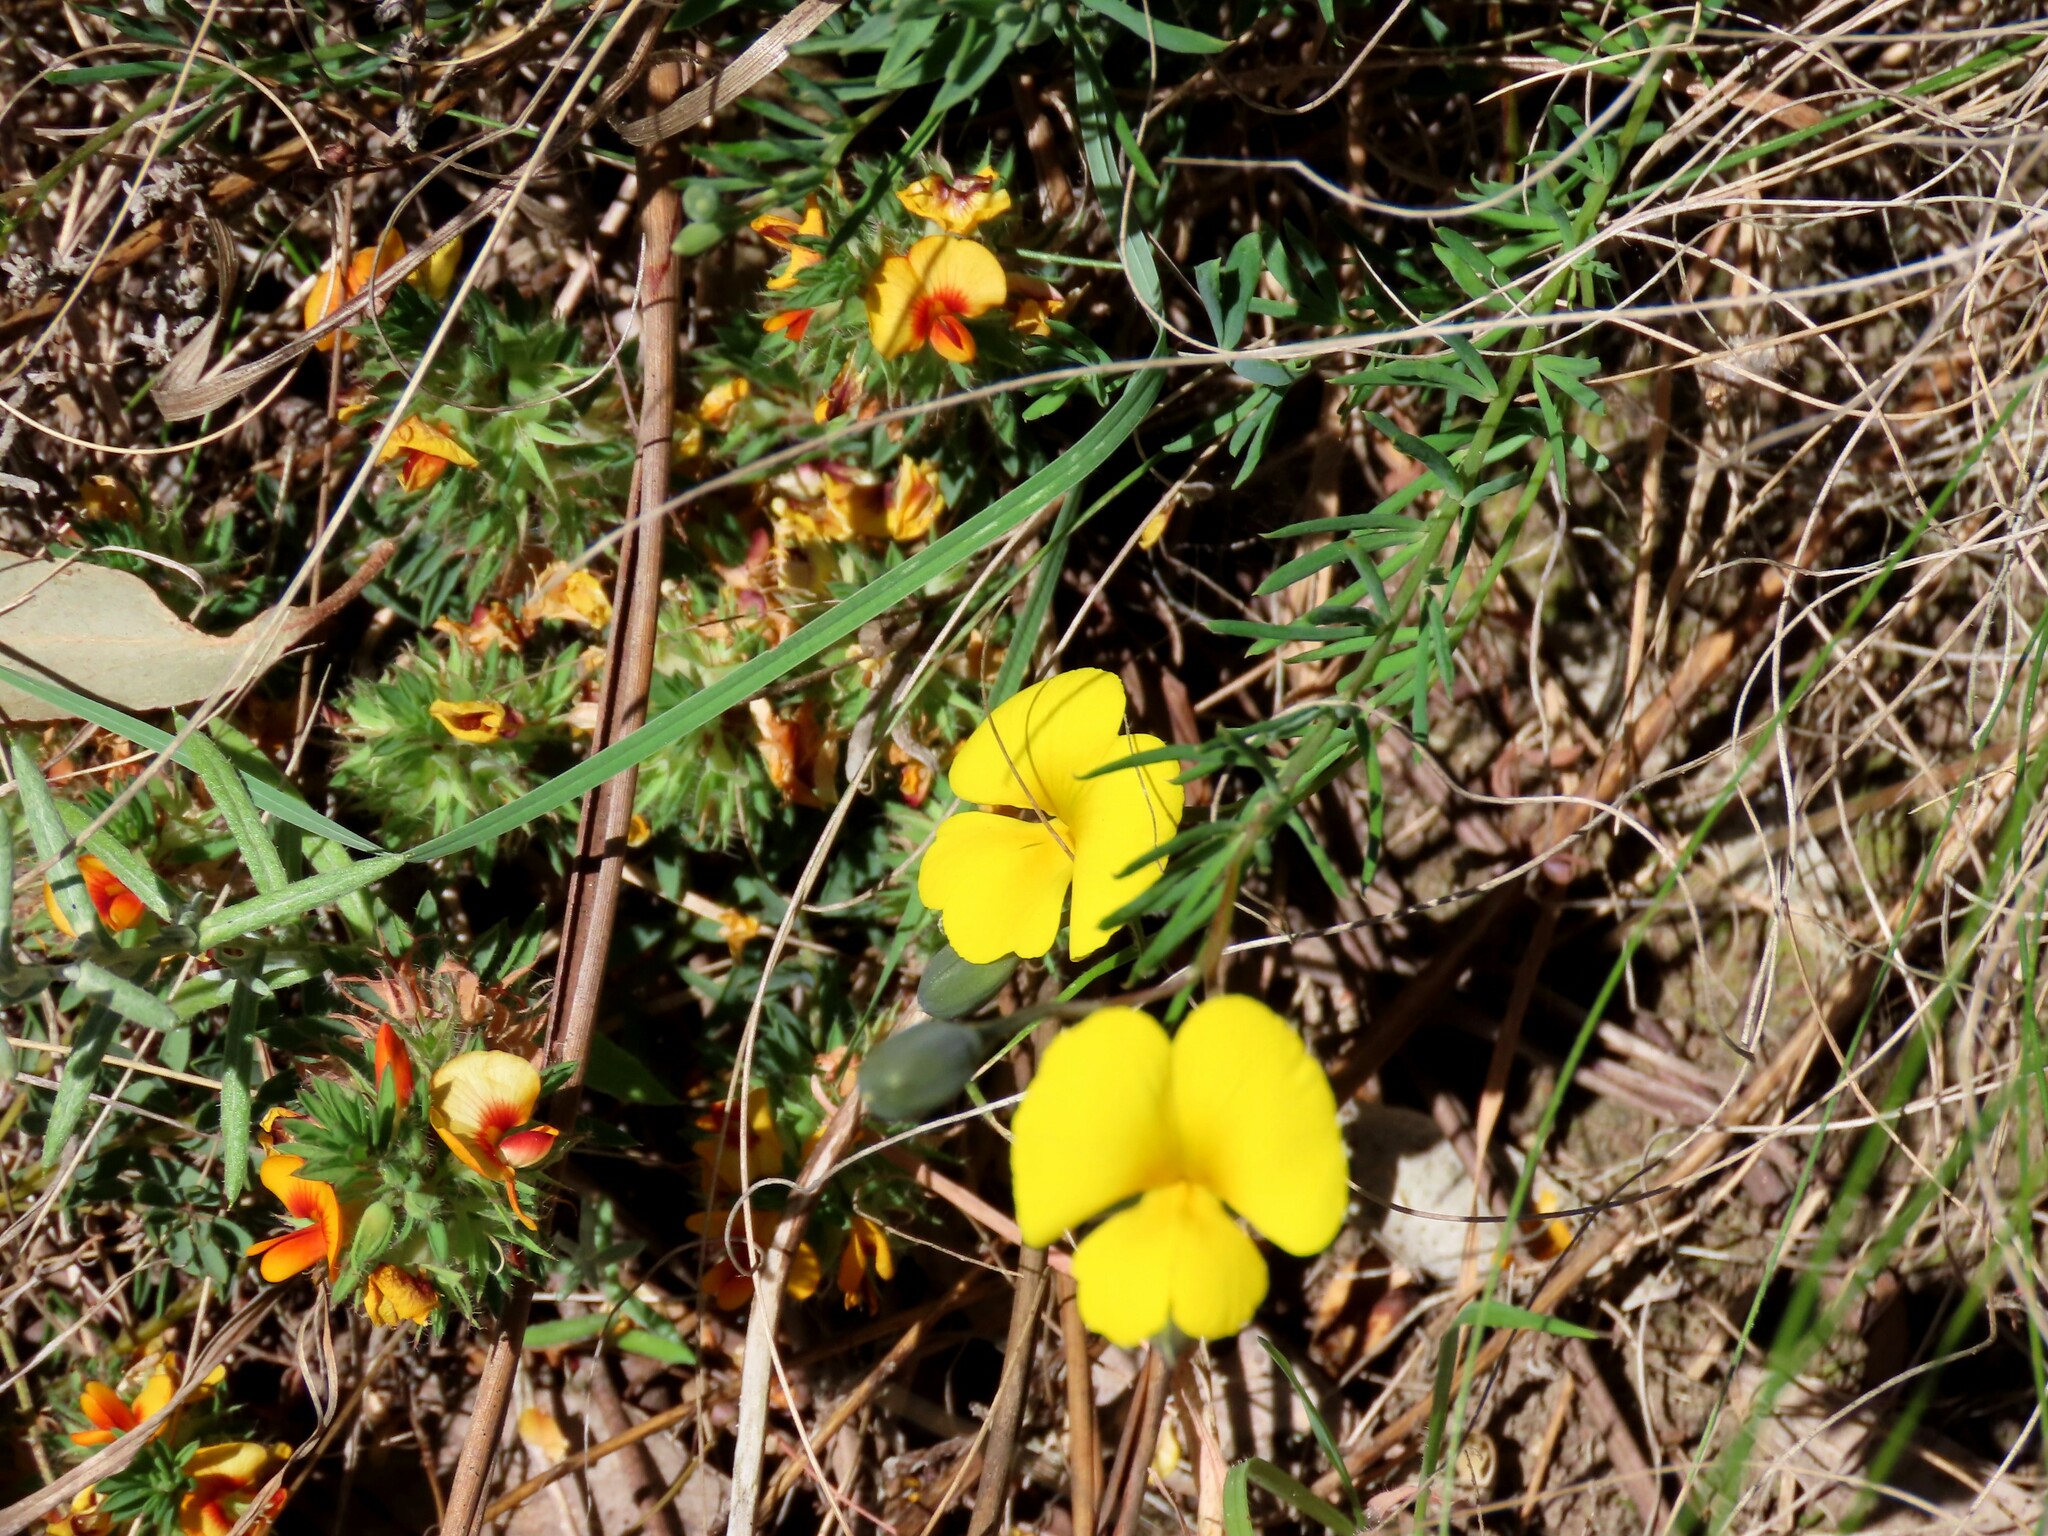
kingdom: Plantae
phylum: Tracheophyta
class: Magnoliopsida
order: Fabales
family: Fabaceae
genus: Gompholobium
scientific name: Gompholobium huegelii
